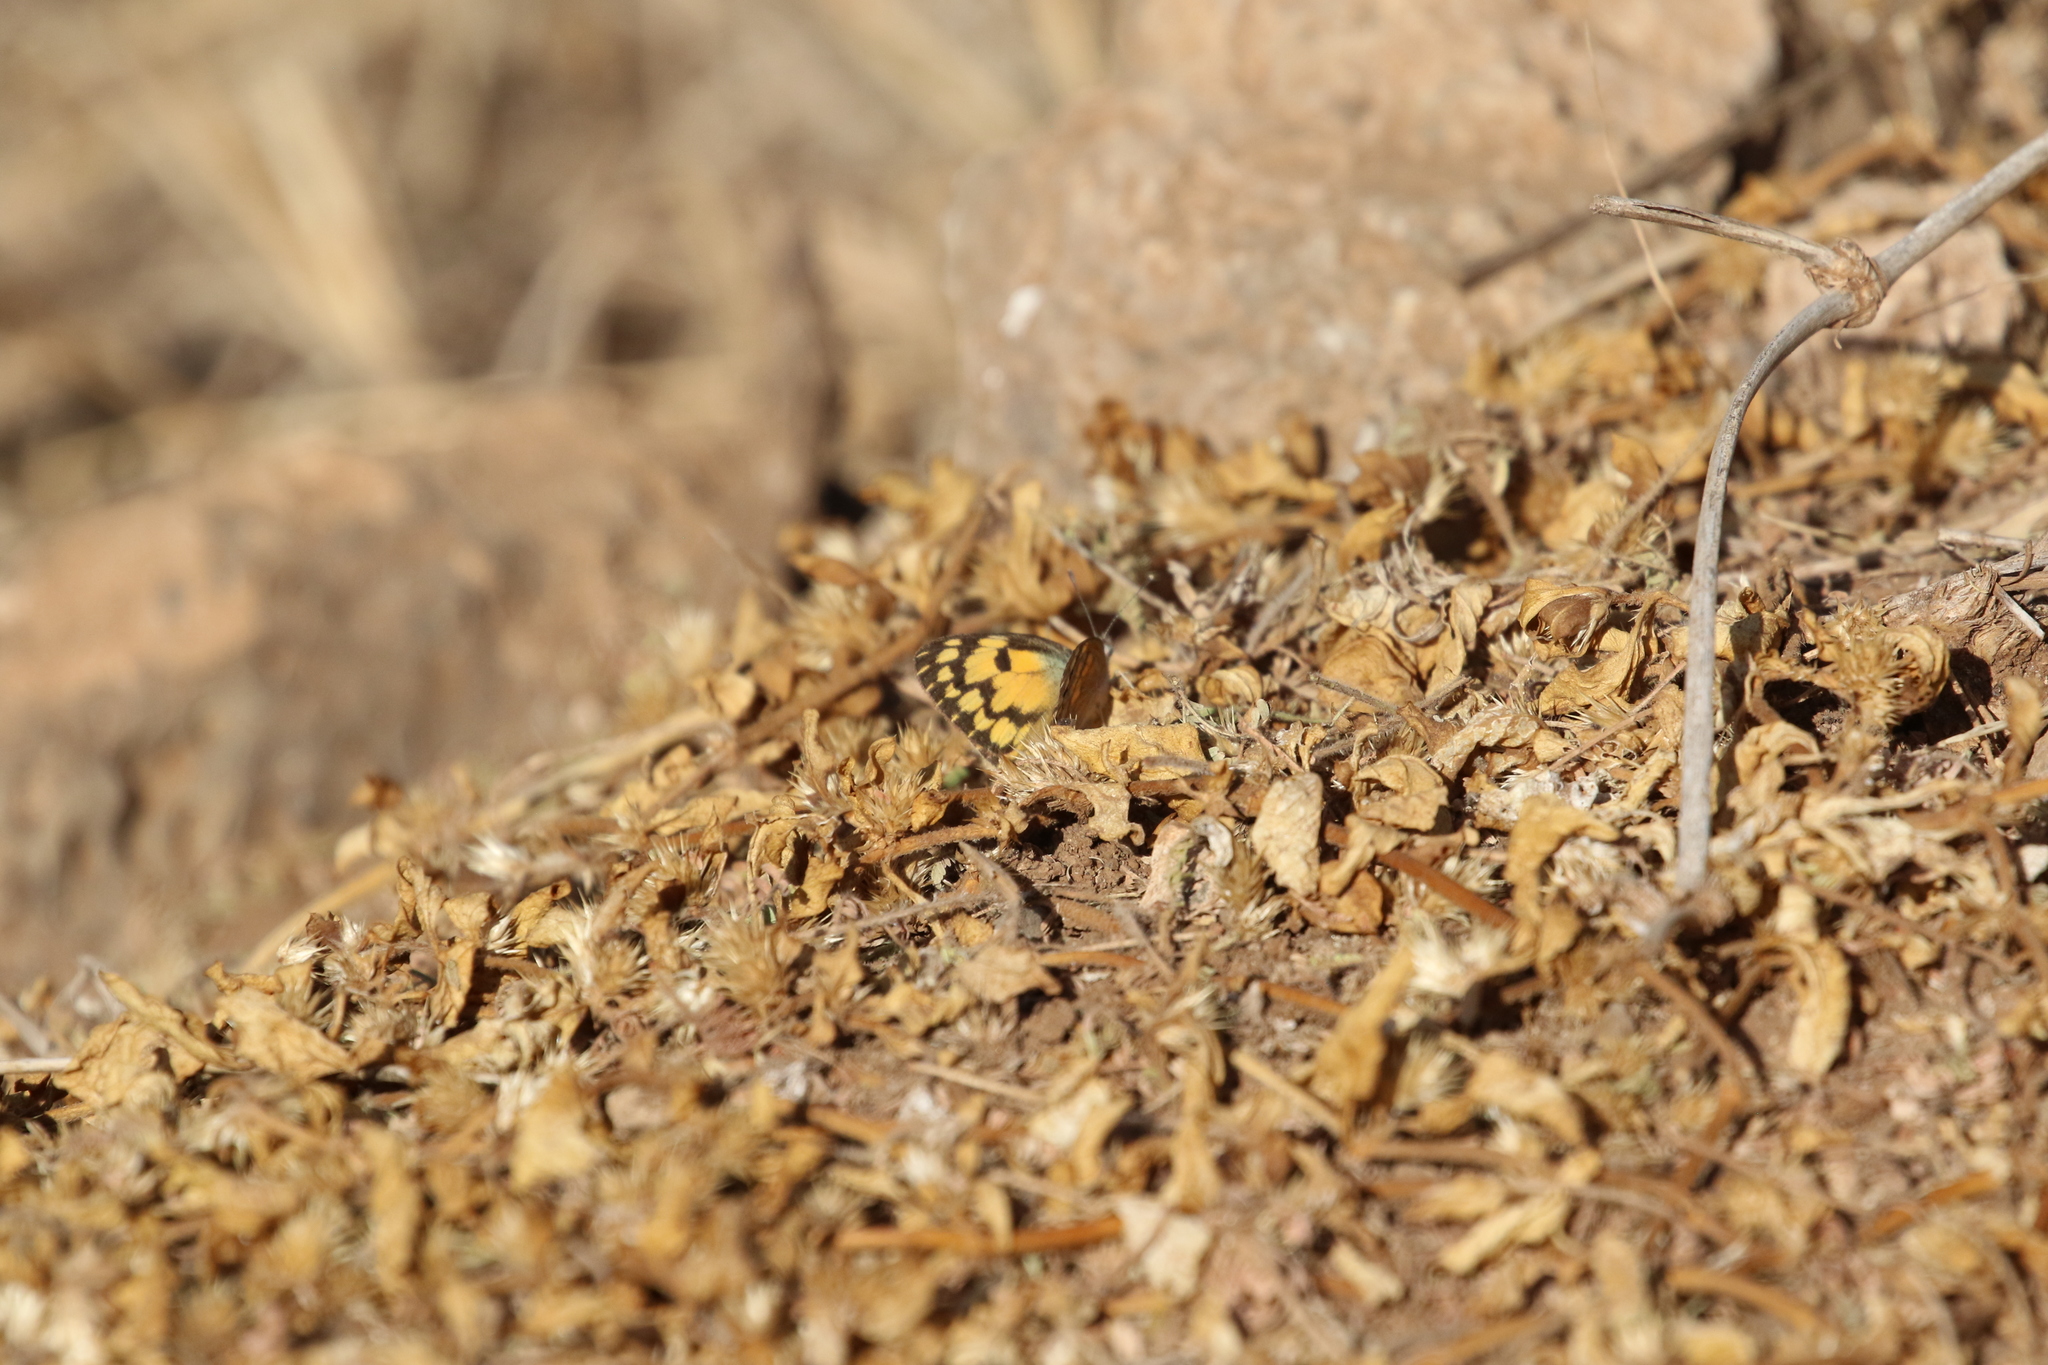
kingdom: Animalia
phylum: Arthropoda
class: Insecta
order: Lepidoptera
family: Pieridae
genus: Colotis
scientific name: Colotis aurigineus
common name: African golden arab
